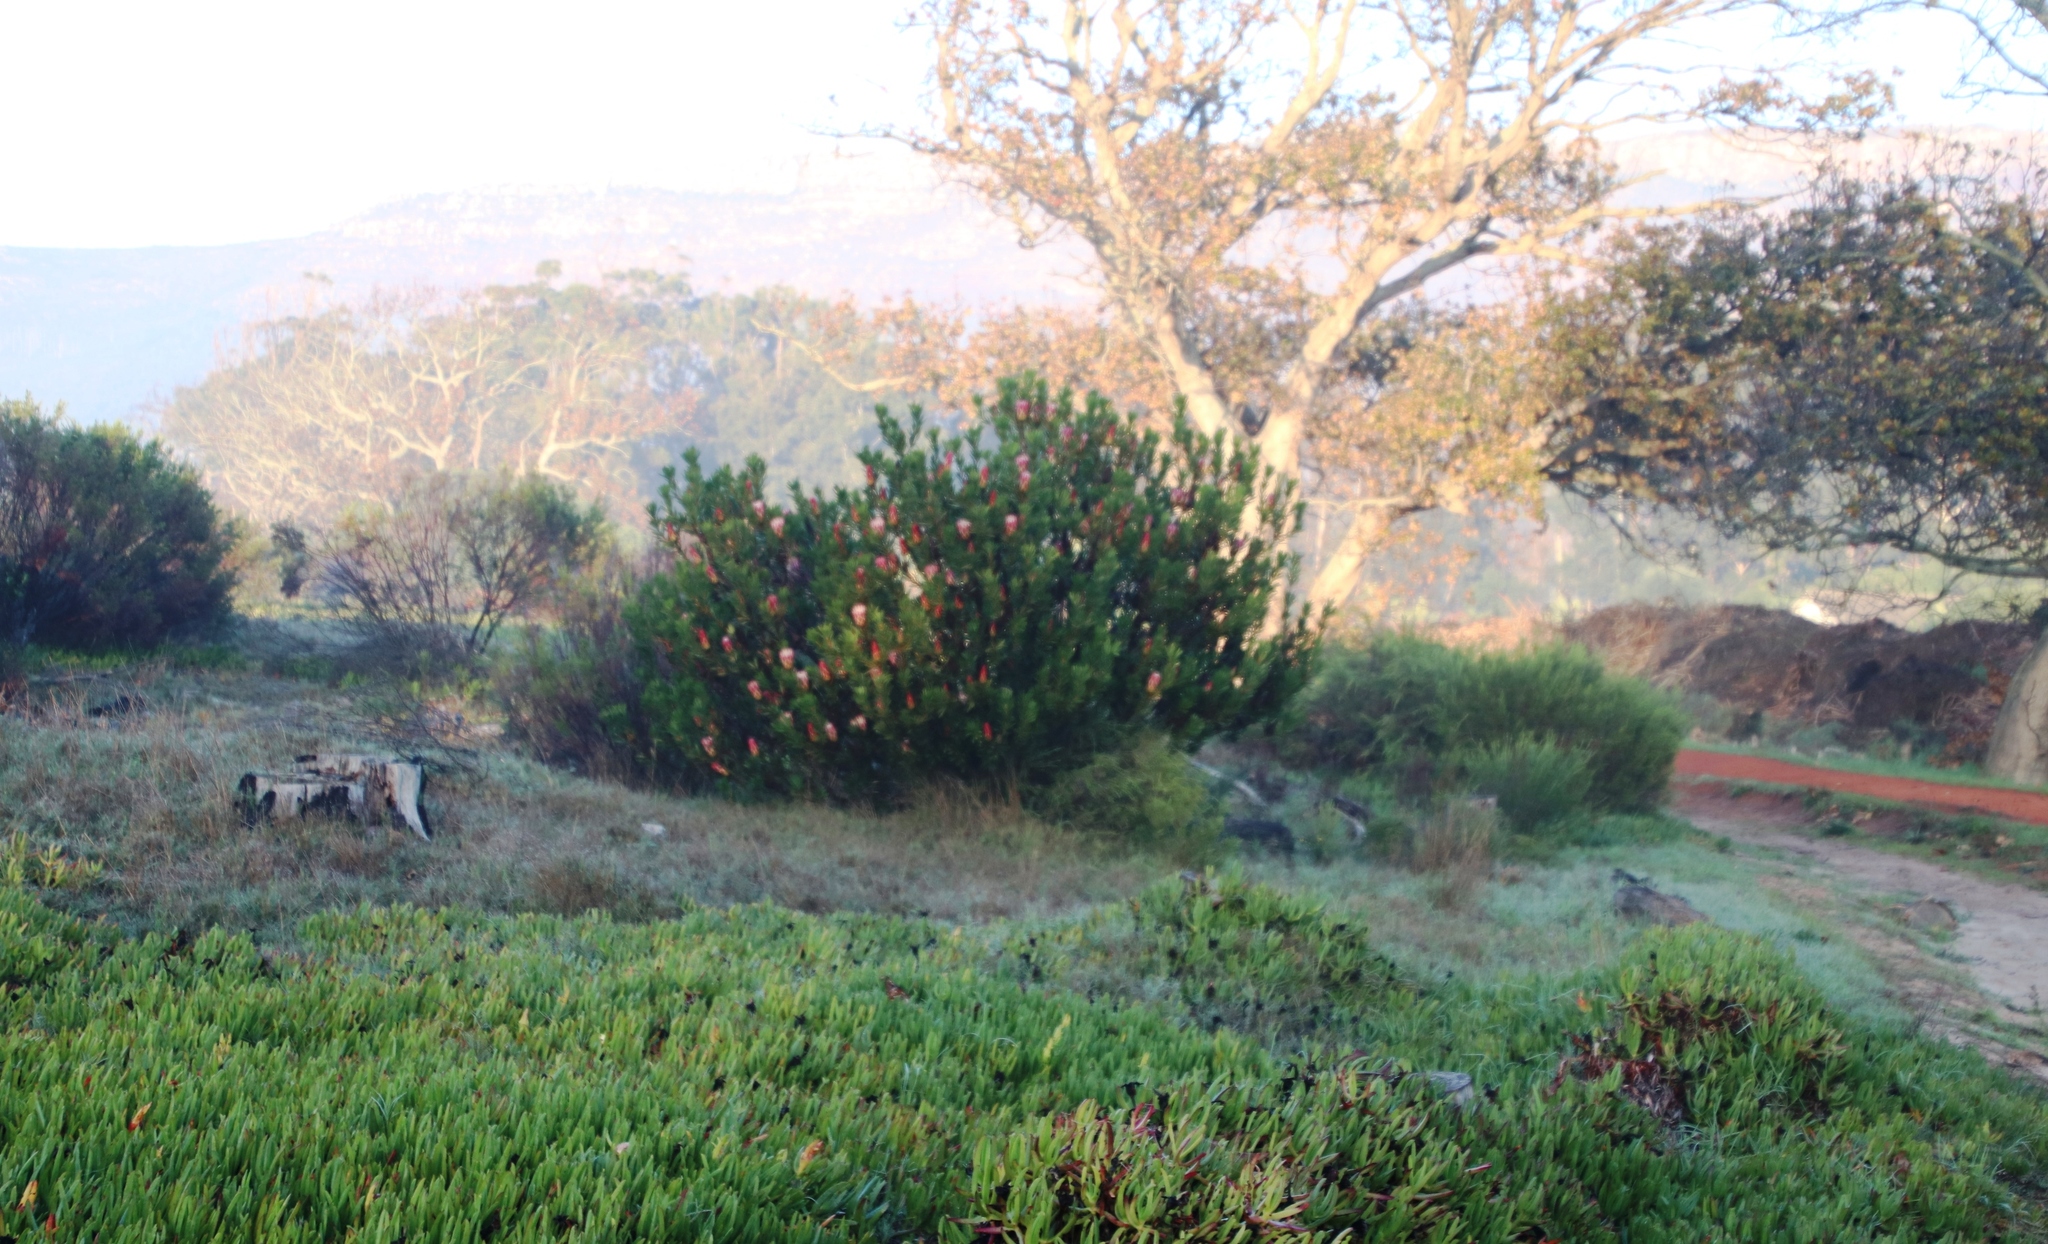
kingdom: Plantae
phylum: Tracheophyta
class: Magnoliopsida
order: Proteales
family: Proteaceae
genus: Protea
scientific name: Protea repens
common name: Sugarbush
